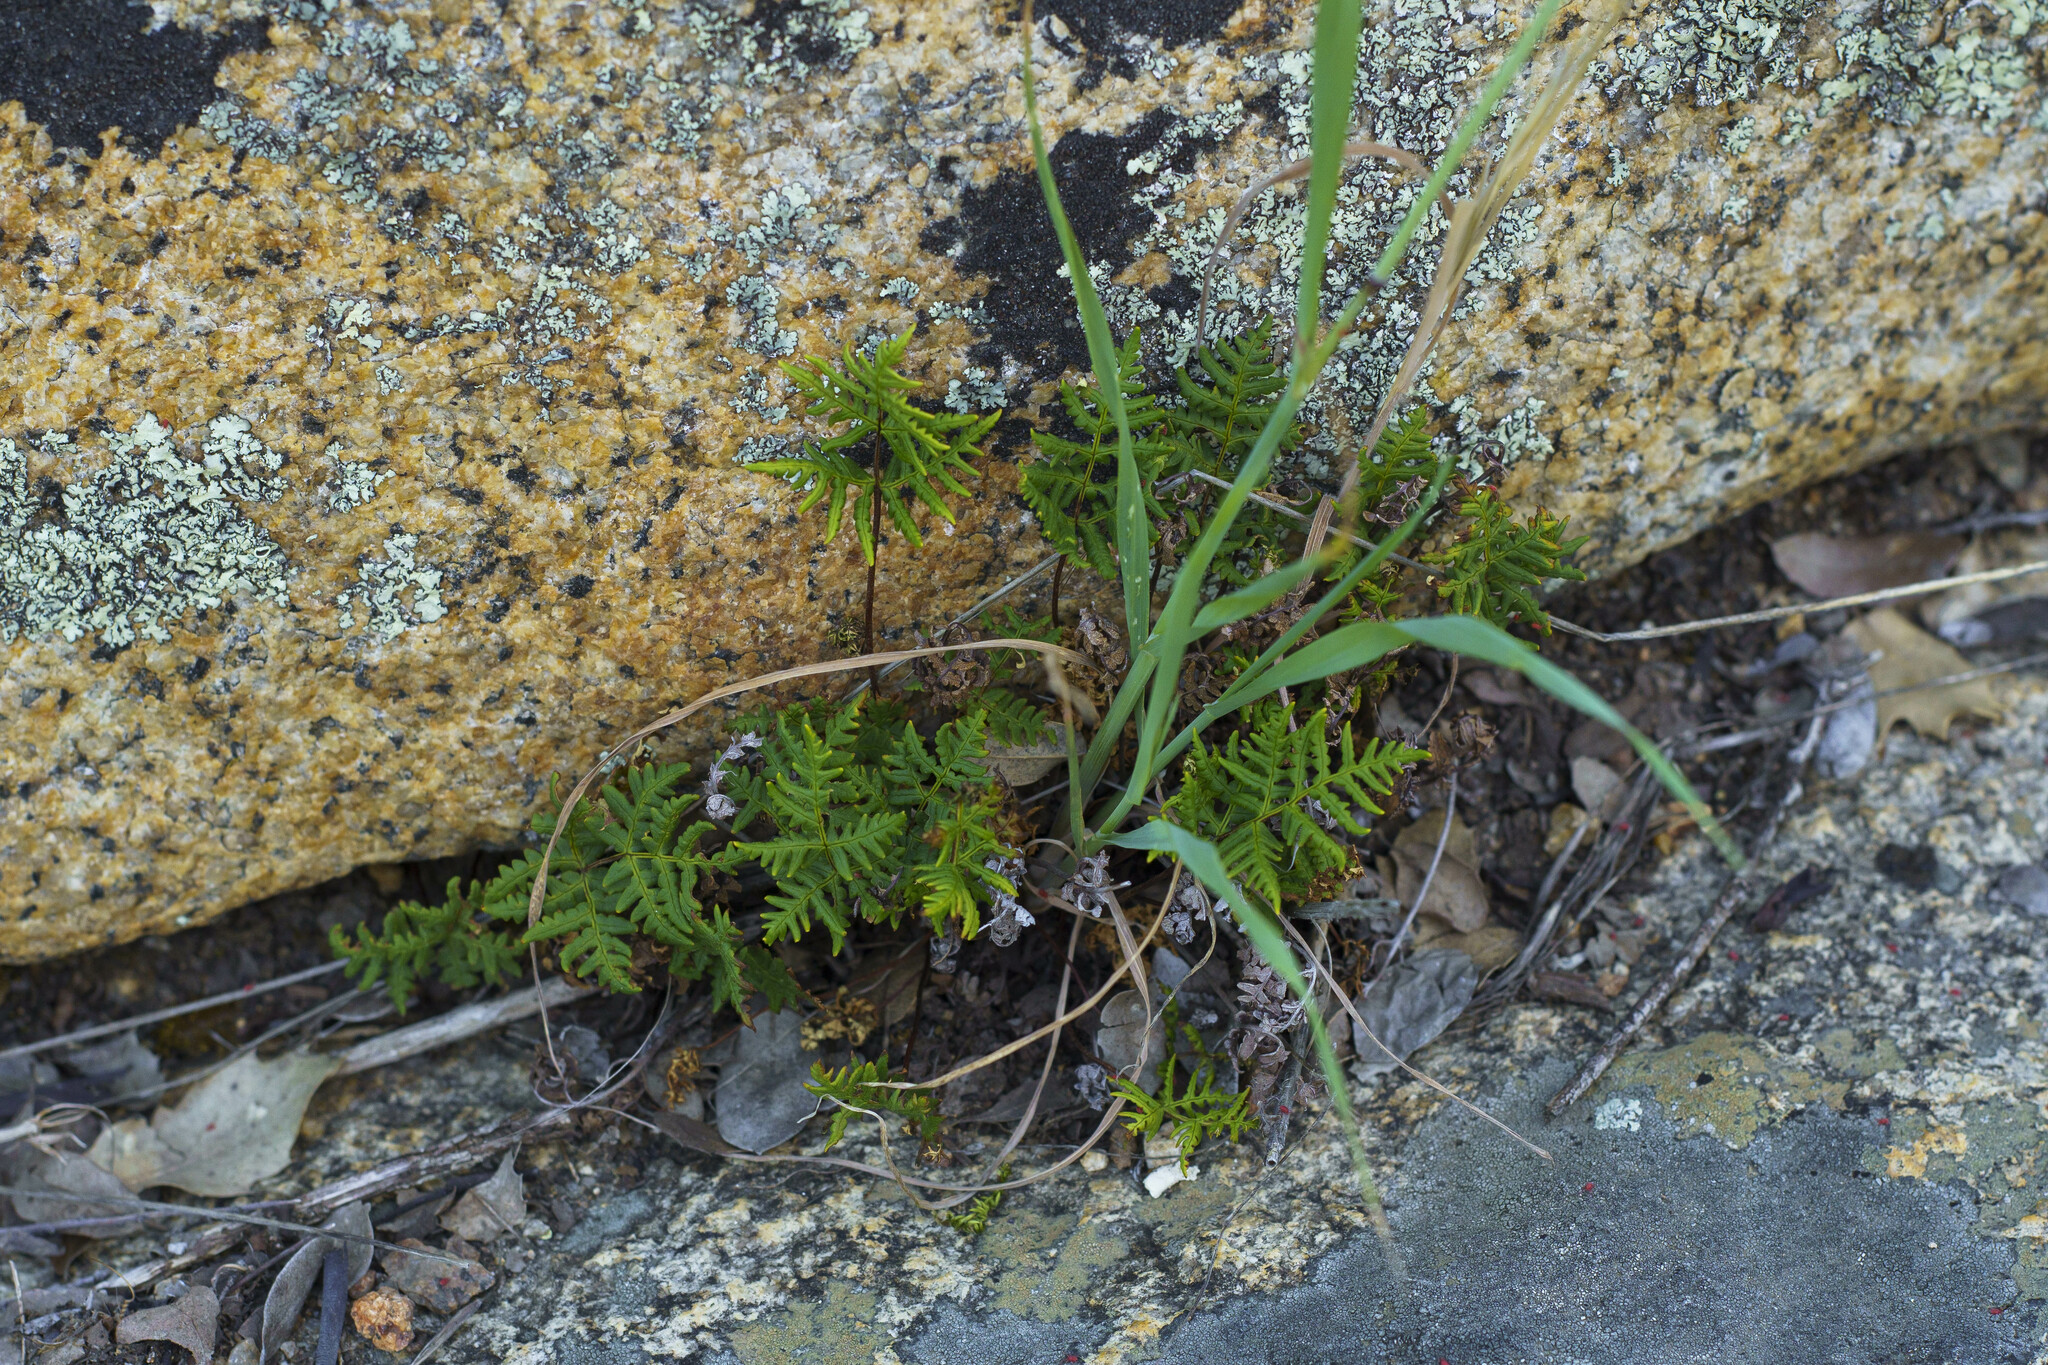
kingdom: Plantae
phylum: Tracheophyta
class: Polypodiopsida
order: Polypodiales
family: Pteridaceae
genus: Pentagramma
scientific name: Pentagramma triangularis
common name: Gold fern
